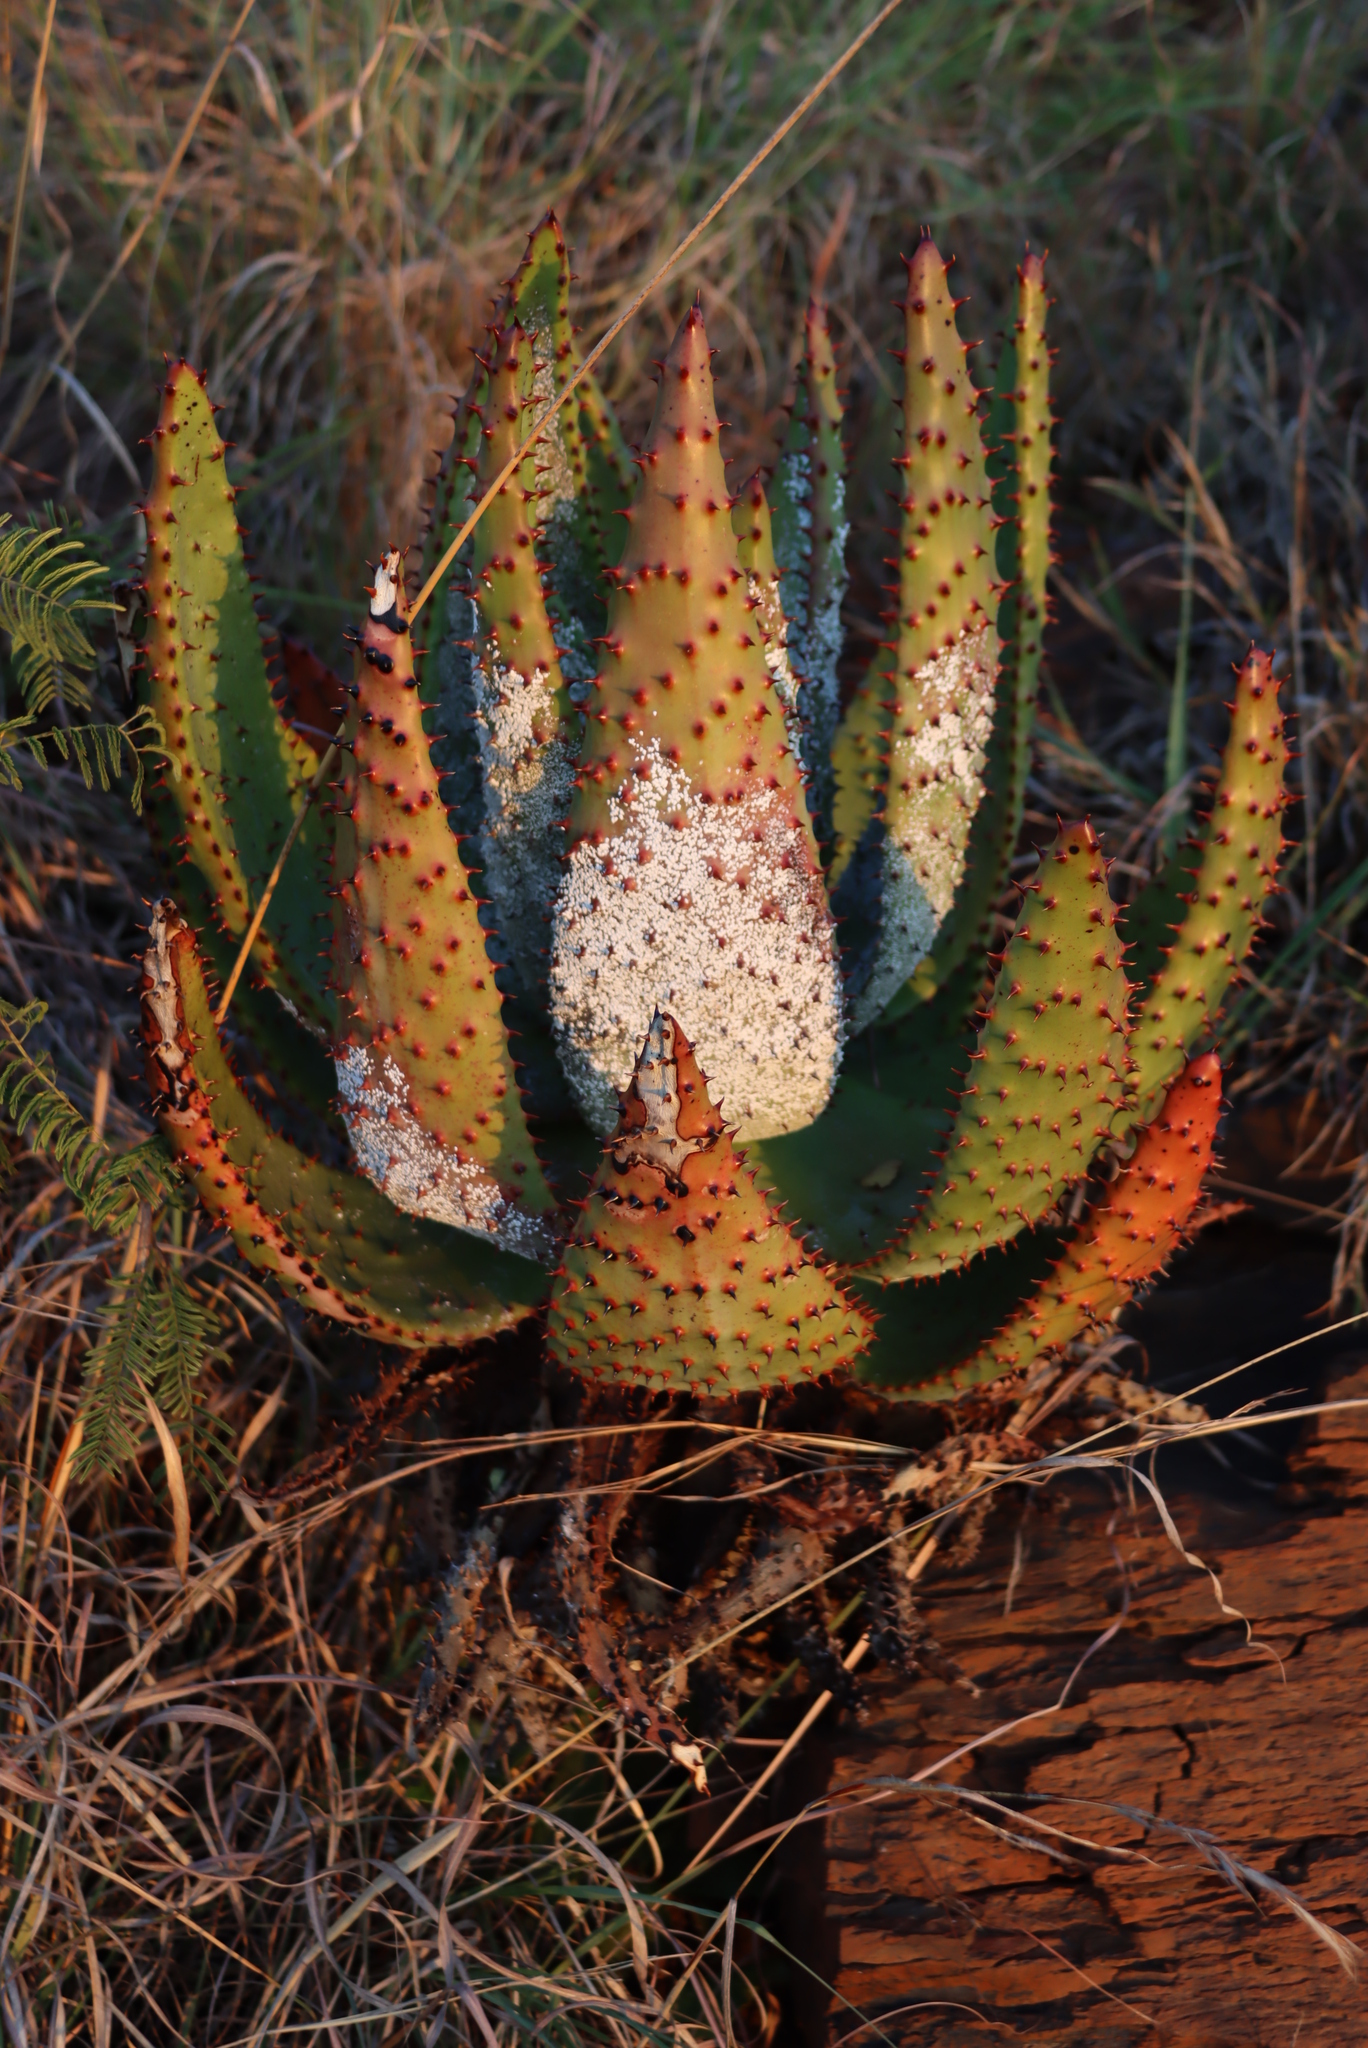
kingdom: Plantae
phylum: Tracheophyta
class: Liliopsida
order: Asparagales
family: Asphodelaceae
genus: Aloe
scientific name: Aloe marlothii
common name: Flat-flowered aloe
